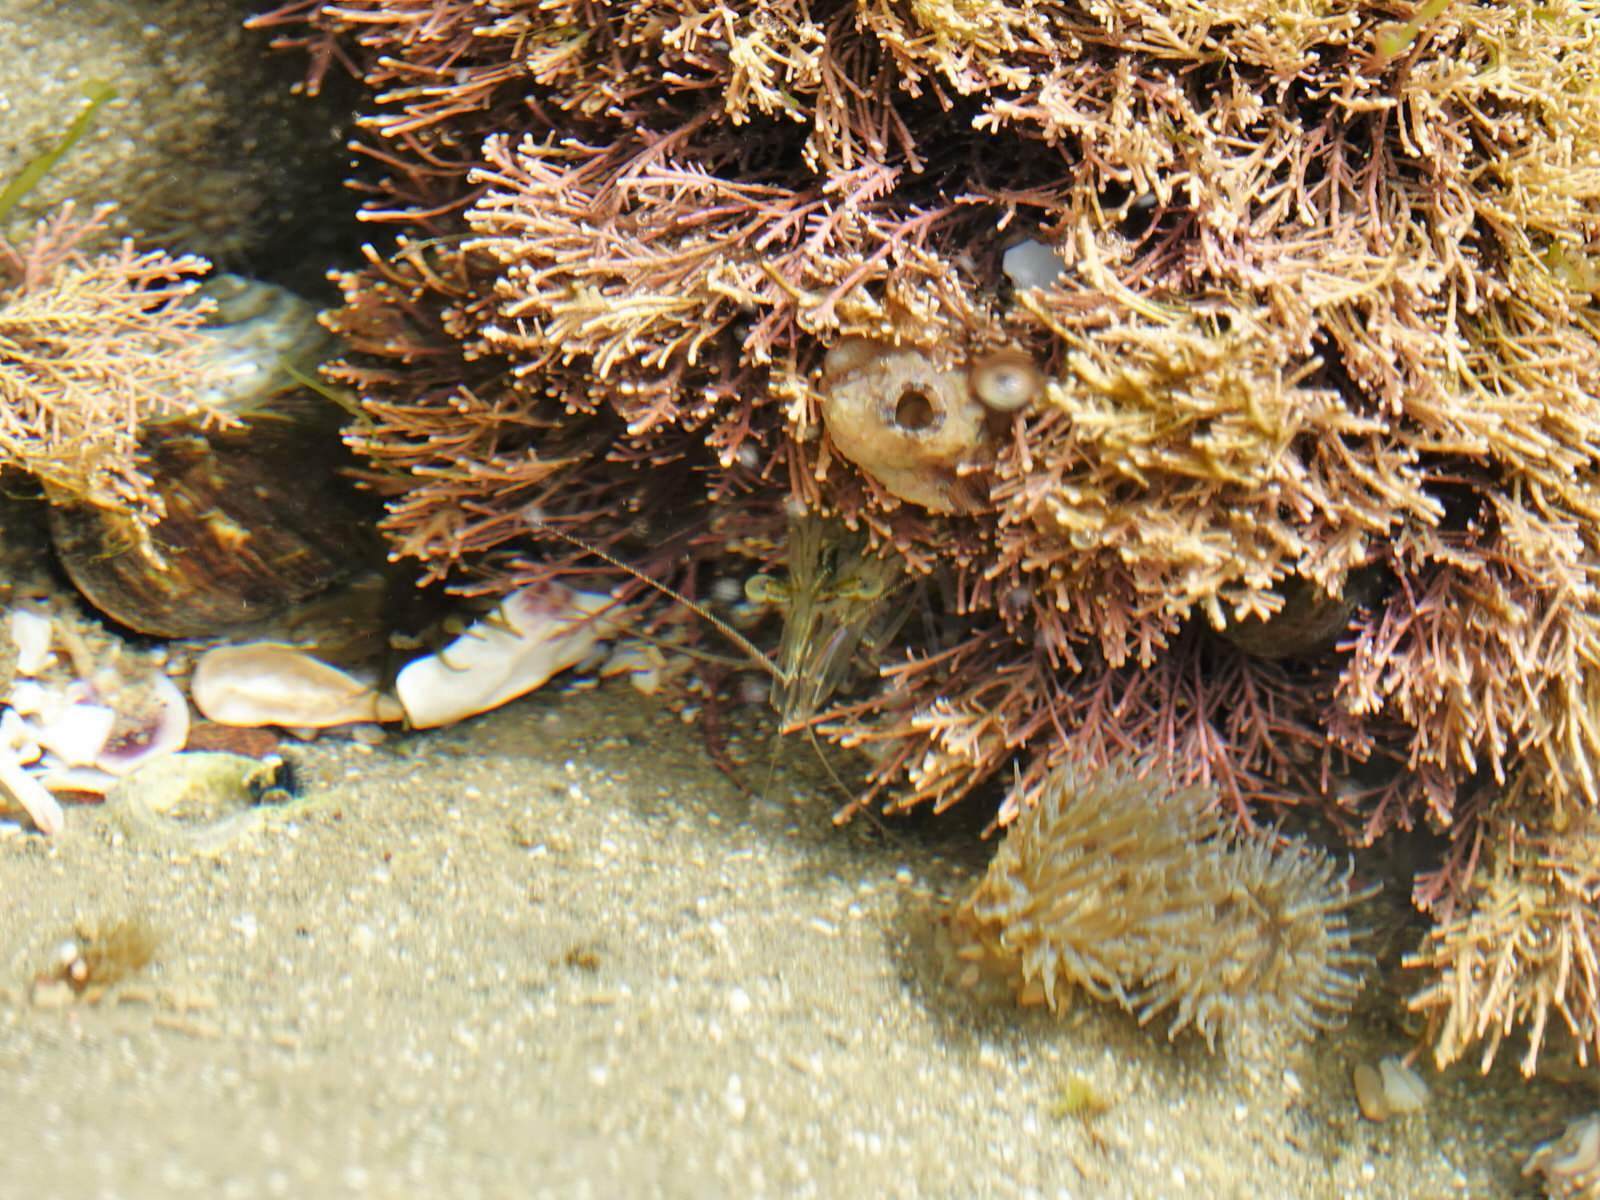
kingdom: Animalia
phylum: Arthropoda
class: Malacostraca
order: Decapoda
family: Palaemonidae
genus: Palaemon
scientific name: Palaemon affinis
